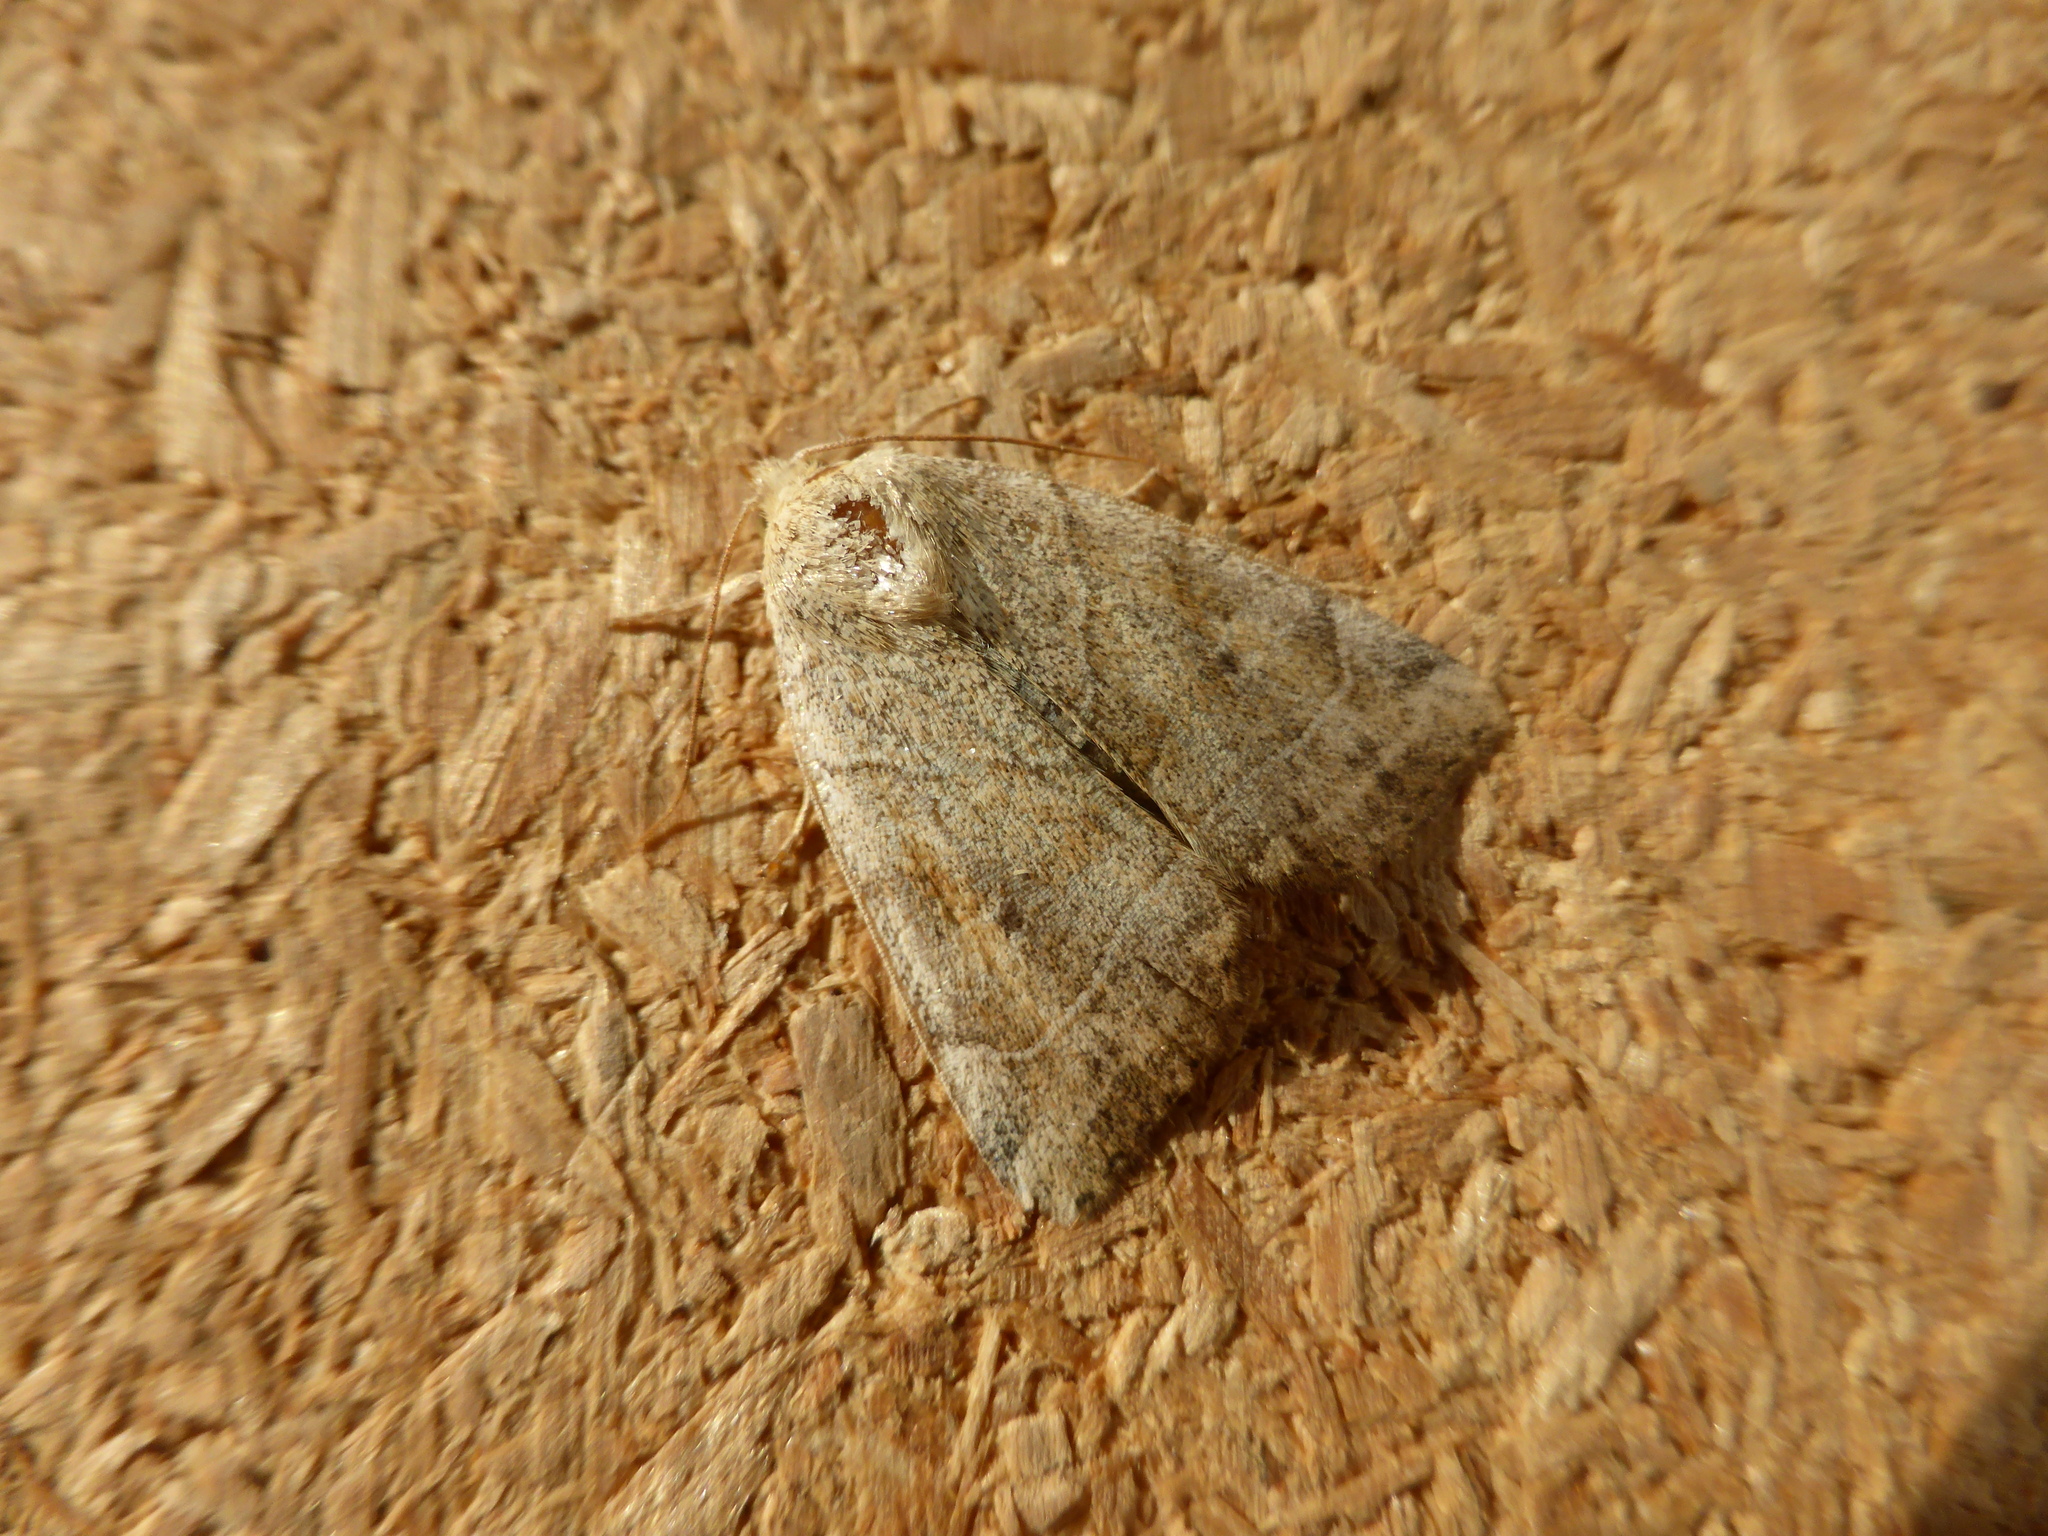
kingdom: Animalia
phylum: Arthropoda
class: Insecta
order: Lepidoptera
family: Noctuidae
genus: Cosmia
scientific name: Cosmia trapezina
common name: Dun-bar
